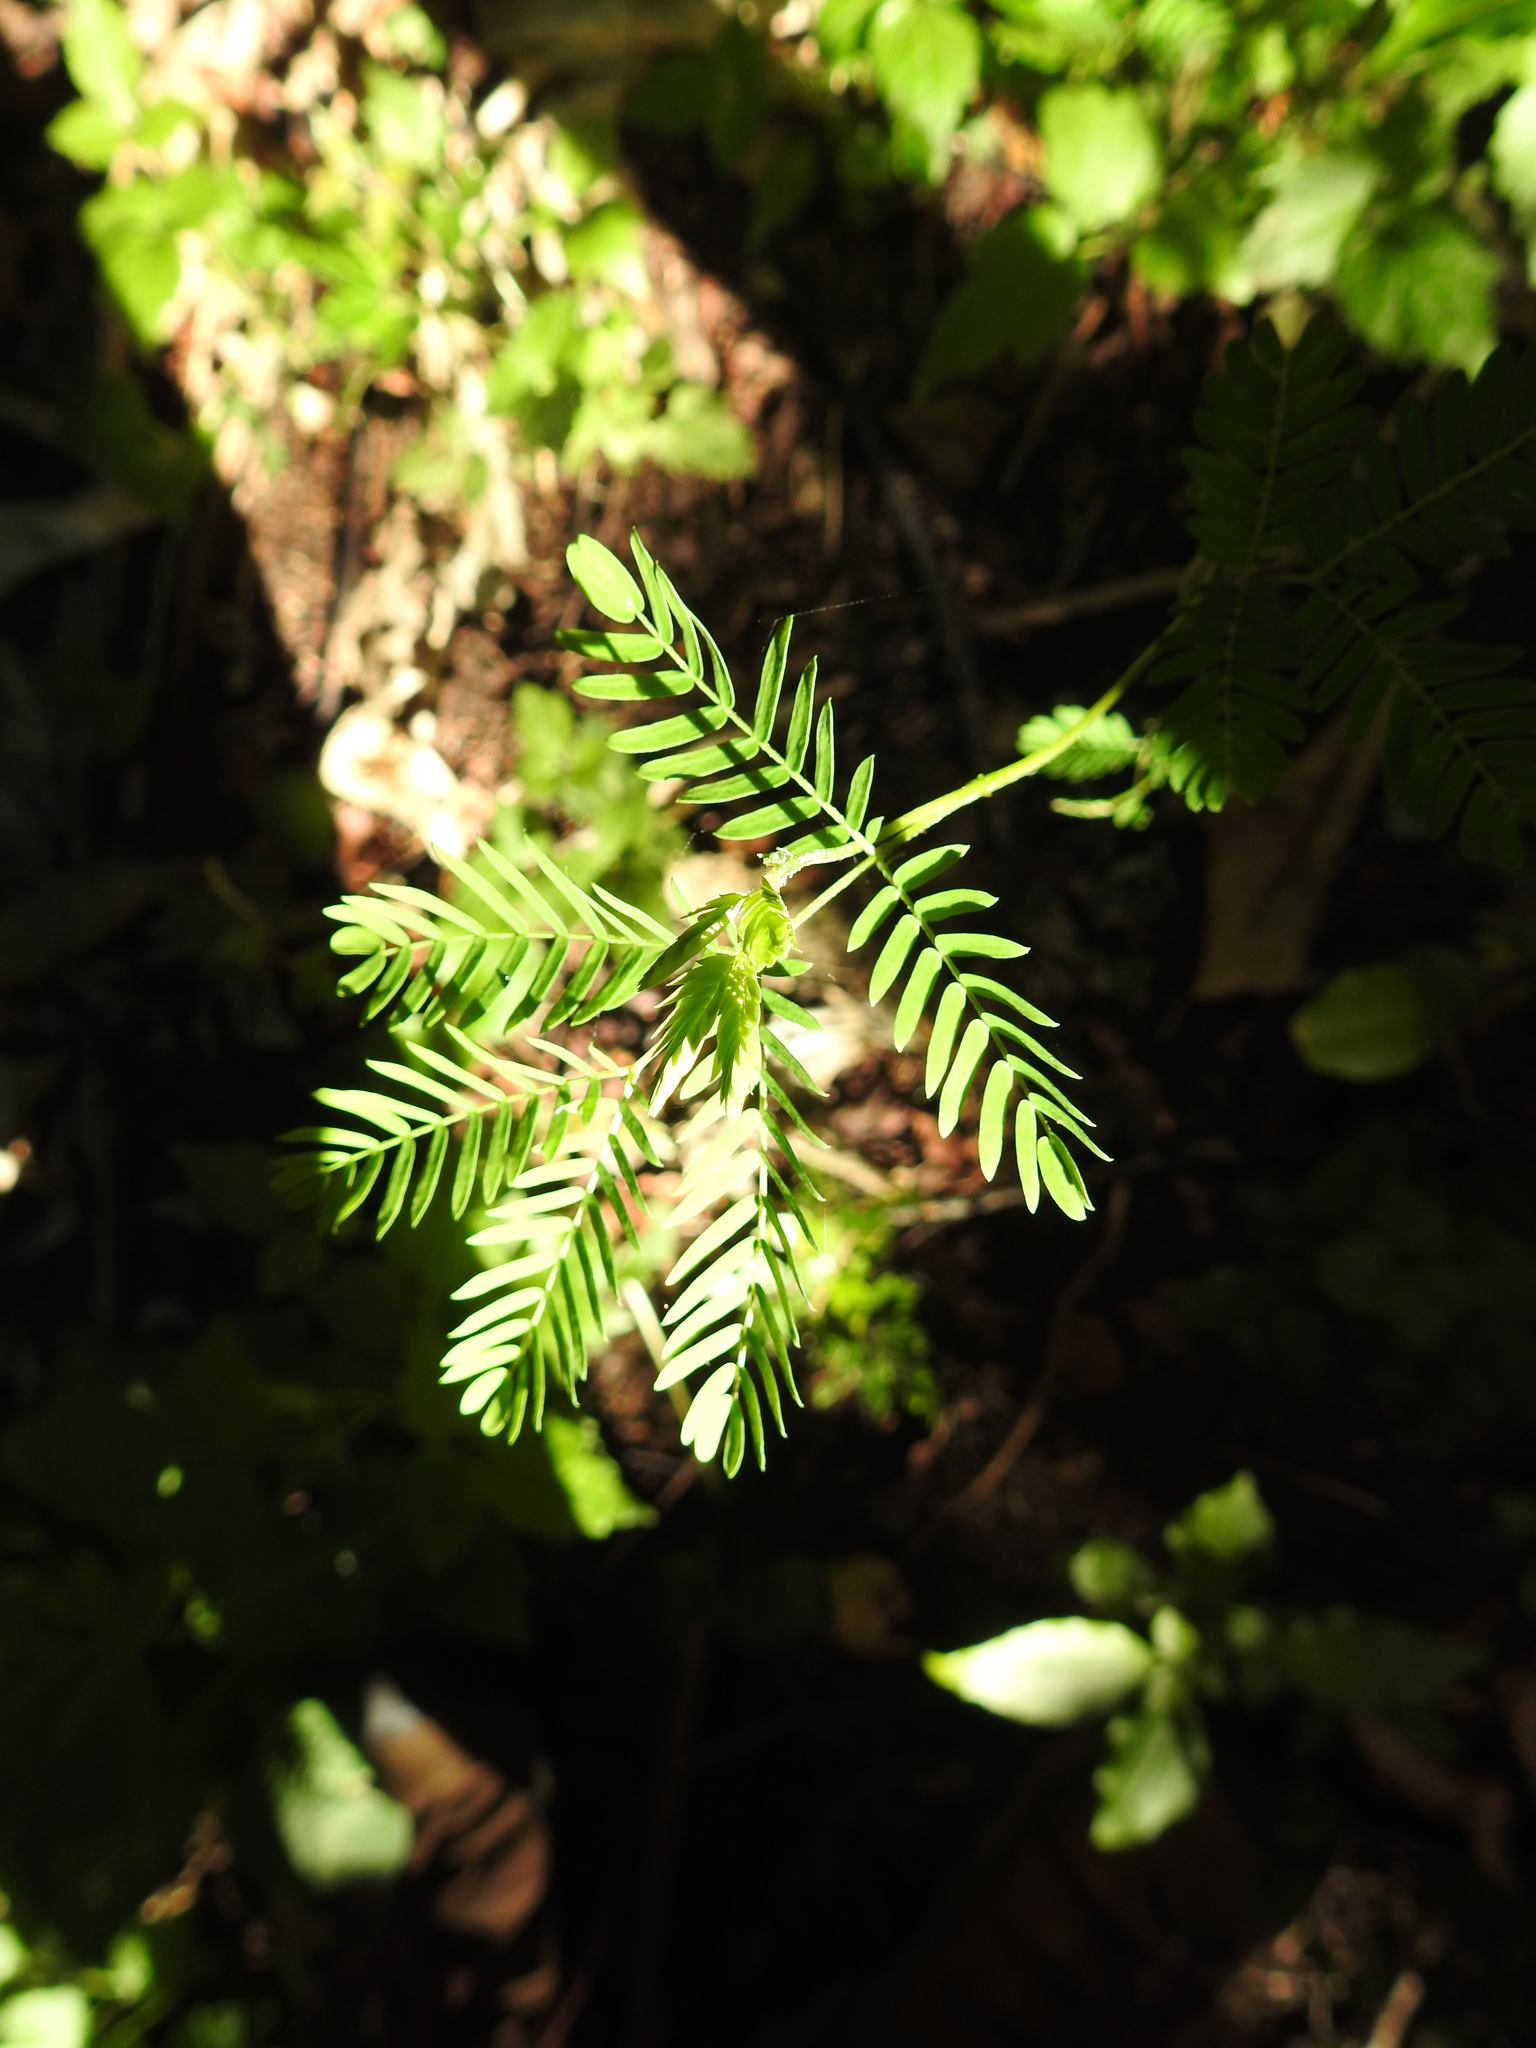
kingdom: Plantae
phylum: Tracheophyta
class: Magnoliopsida
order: Fabales
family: Fabaceae
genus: Paraserianthes
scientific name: Paraserianthes lophantha
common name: Plume albizia
